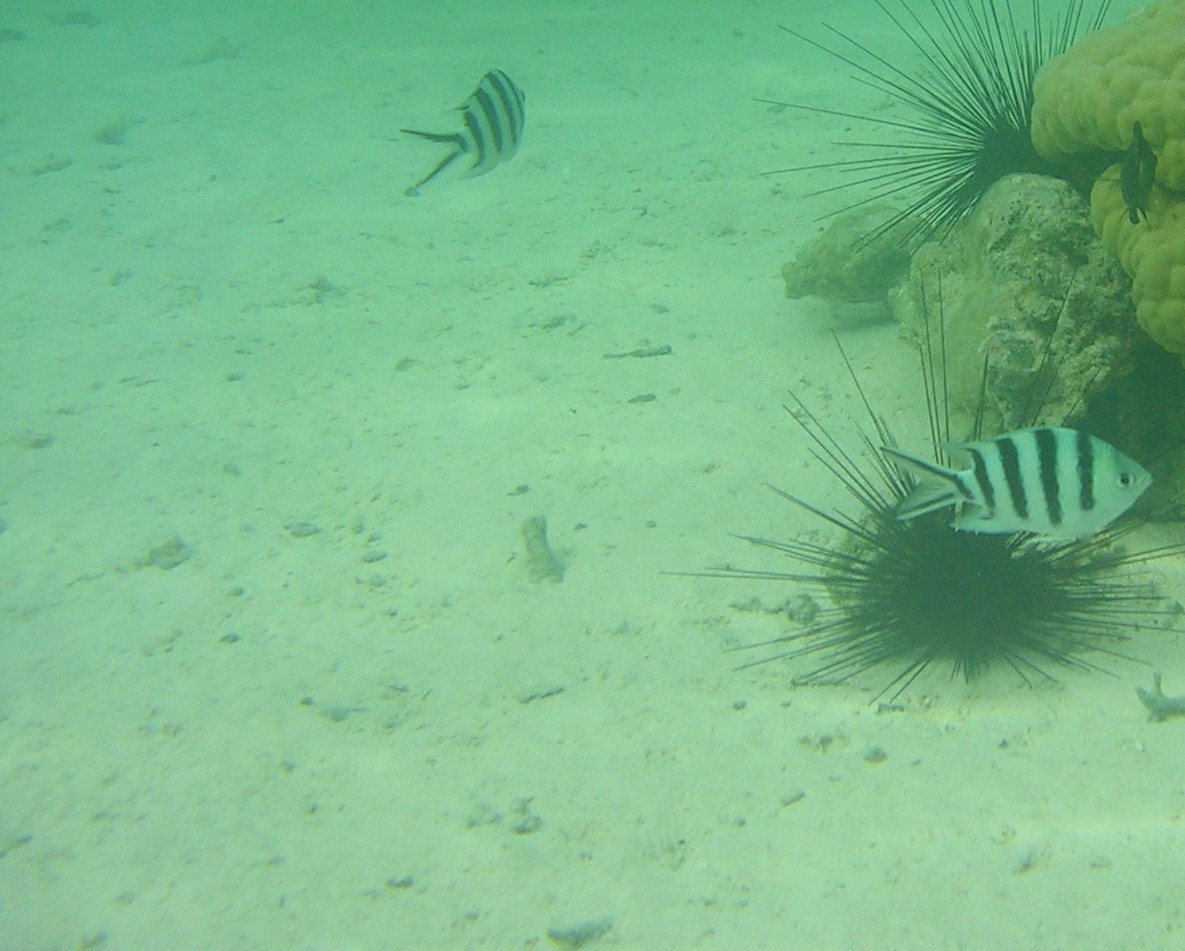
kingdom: Animalia
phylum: Chordata
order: Perciformes
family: Pomacentridae
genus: Abudefduf
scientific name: Abudefduf sexfasciatus
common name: Scissortail sergeant
